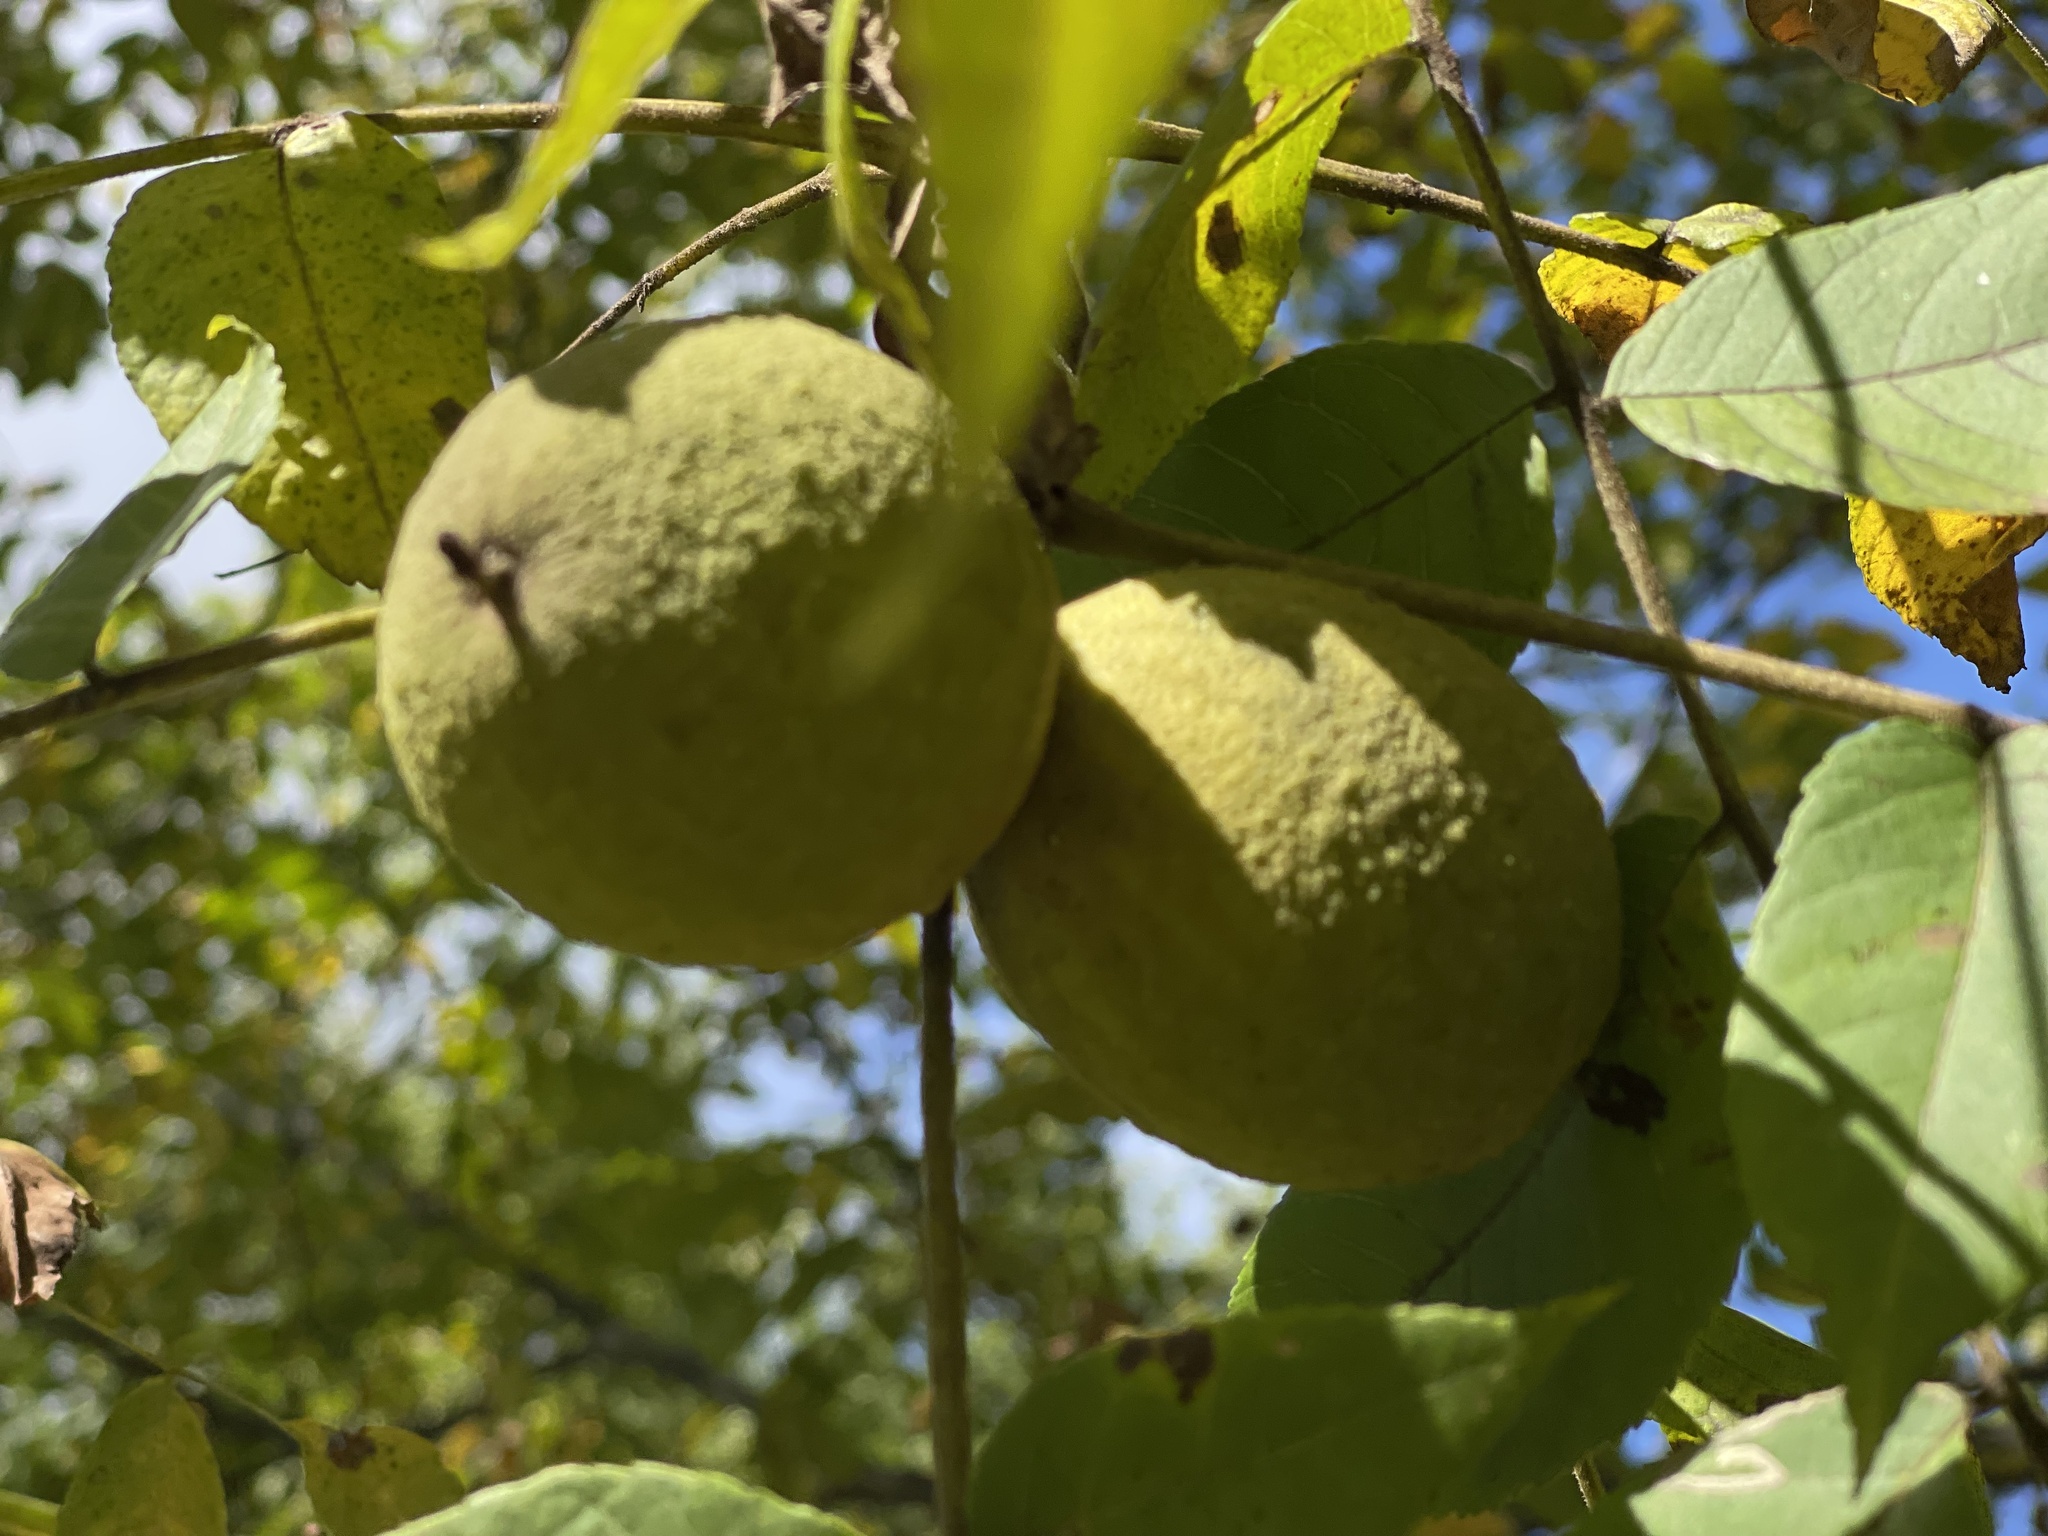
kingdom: Plantae
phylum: Tracheophyta
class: Magnoliopsida
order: Fagales
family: Juglandaceae
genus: Juglans
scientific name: Juglans nigra
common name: Black walnut
